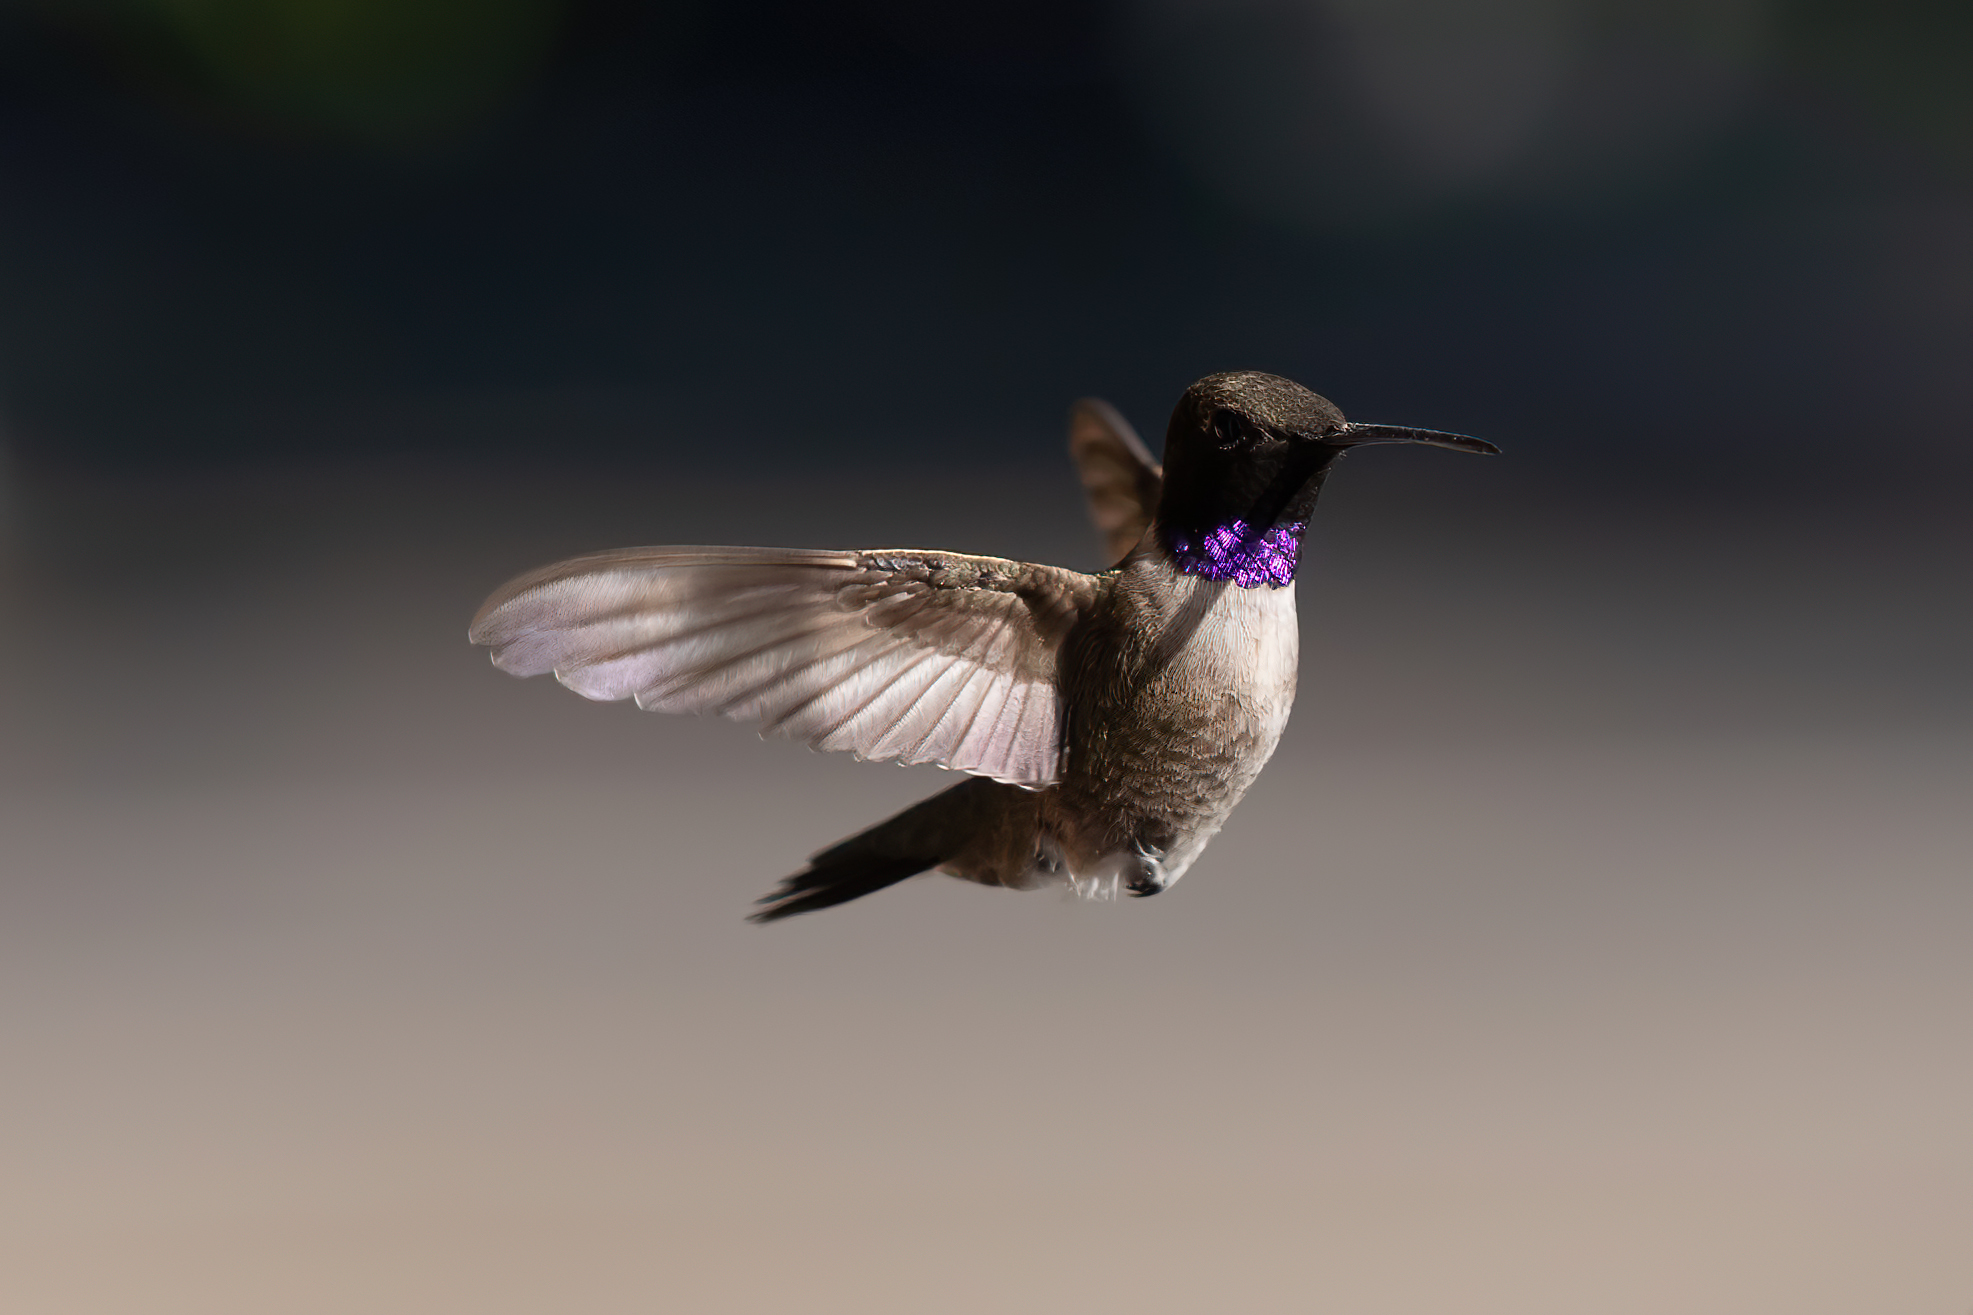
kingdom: Animalia
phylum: Chordata
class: Aves
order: Apodiformes
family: Trochilidae
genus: Archilochus
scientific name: Archilochus alexandri
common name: Black-chinned hummingbird
